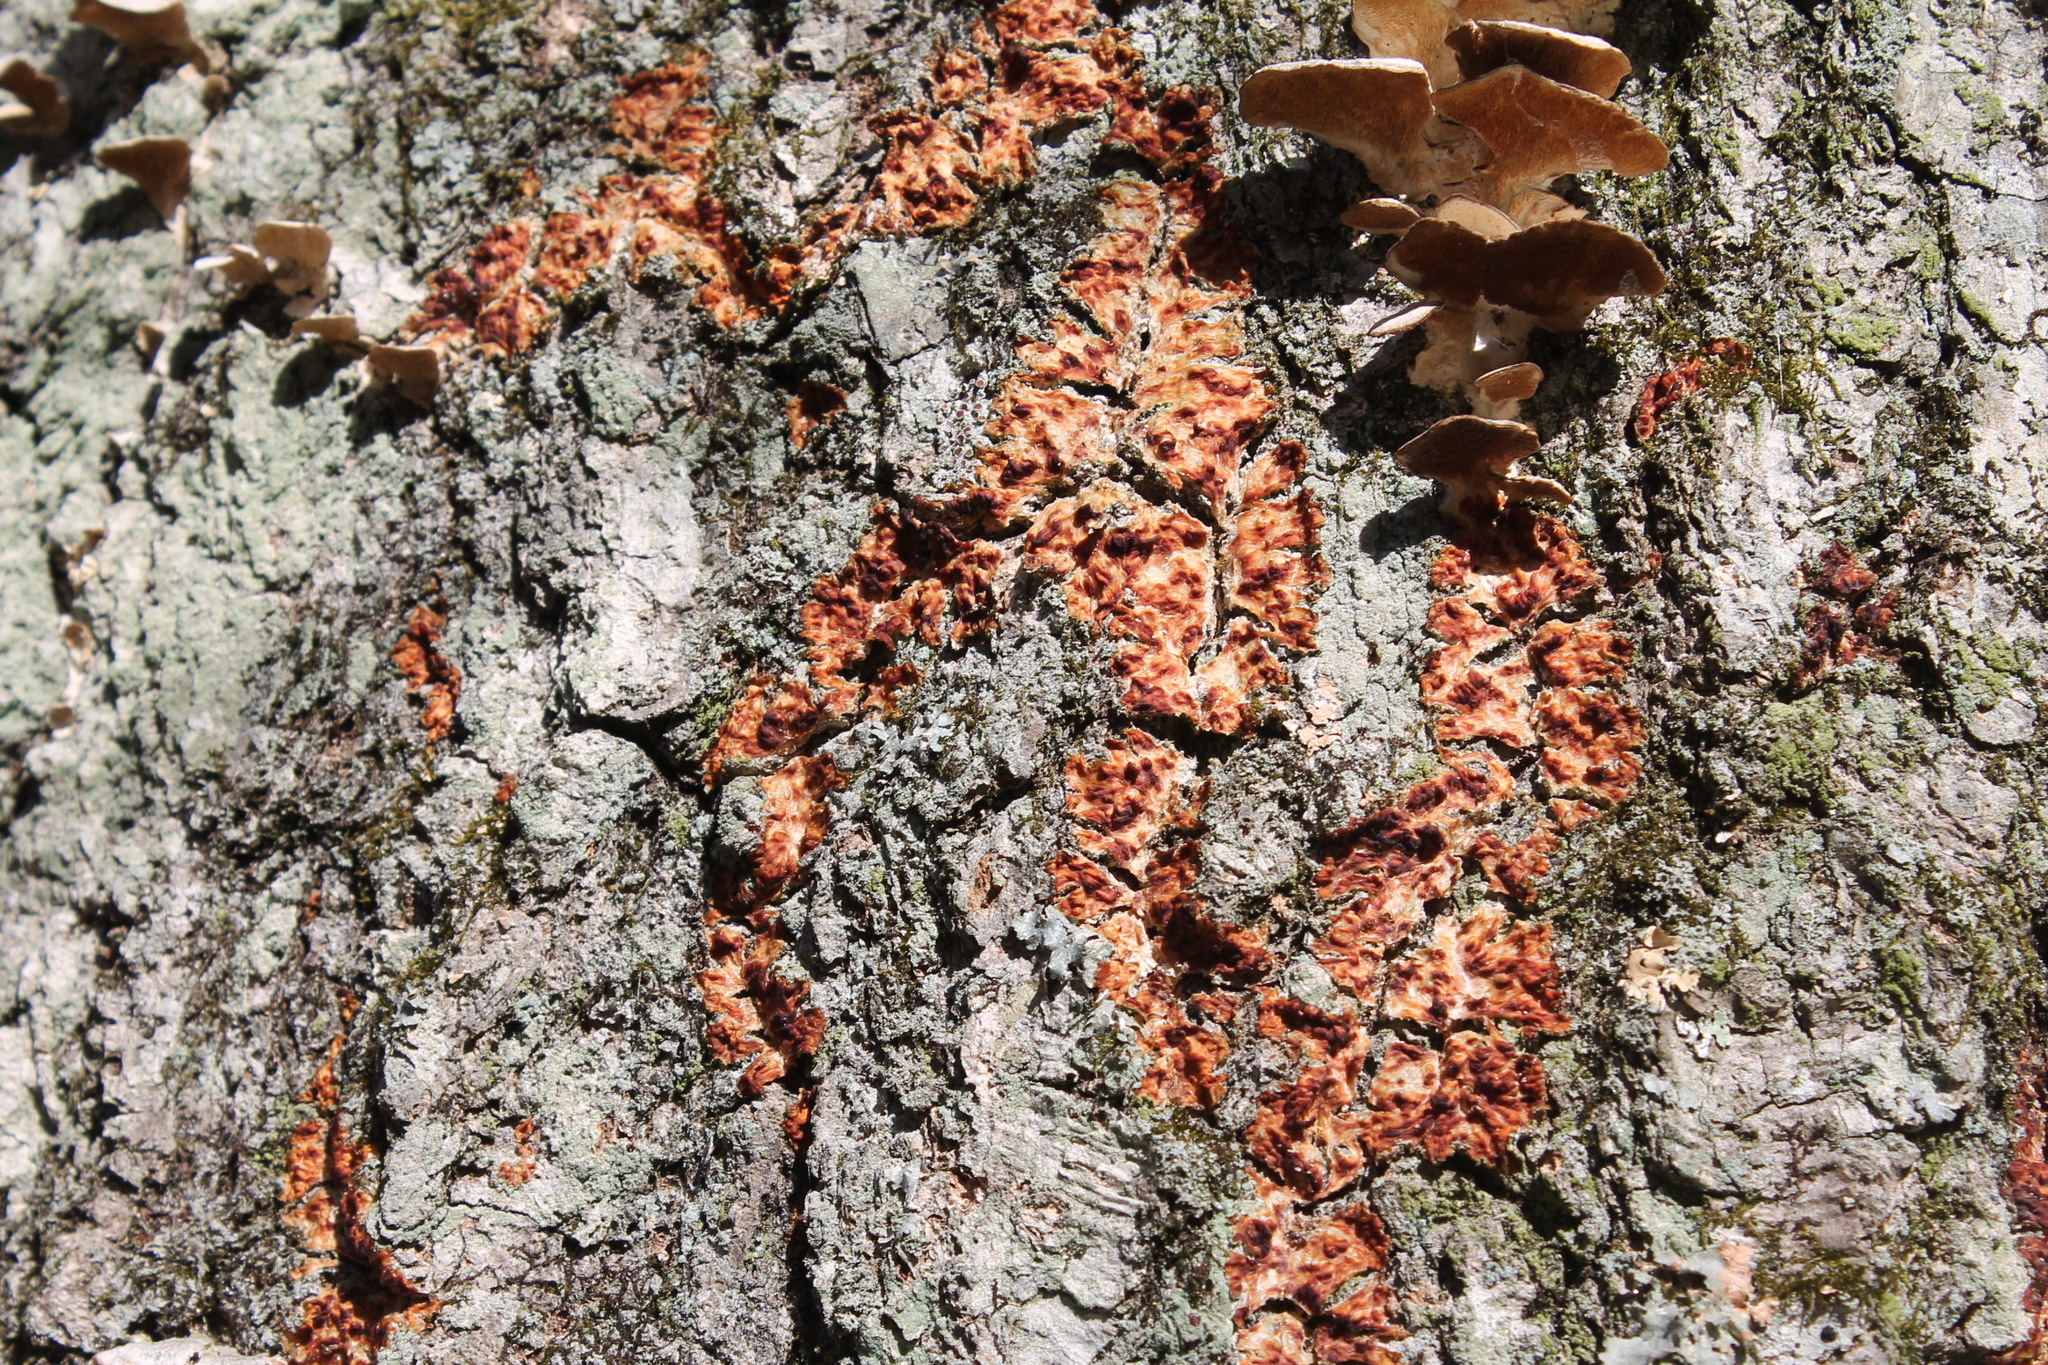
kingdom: Fungi
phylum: Basidiomycota
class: Agaricomycetes
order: Polyporales
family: Meruliaceae
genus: Phlebia
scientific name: Phlebia radiata
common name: Wrinkled crust
